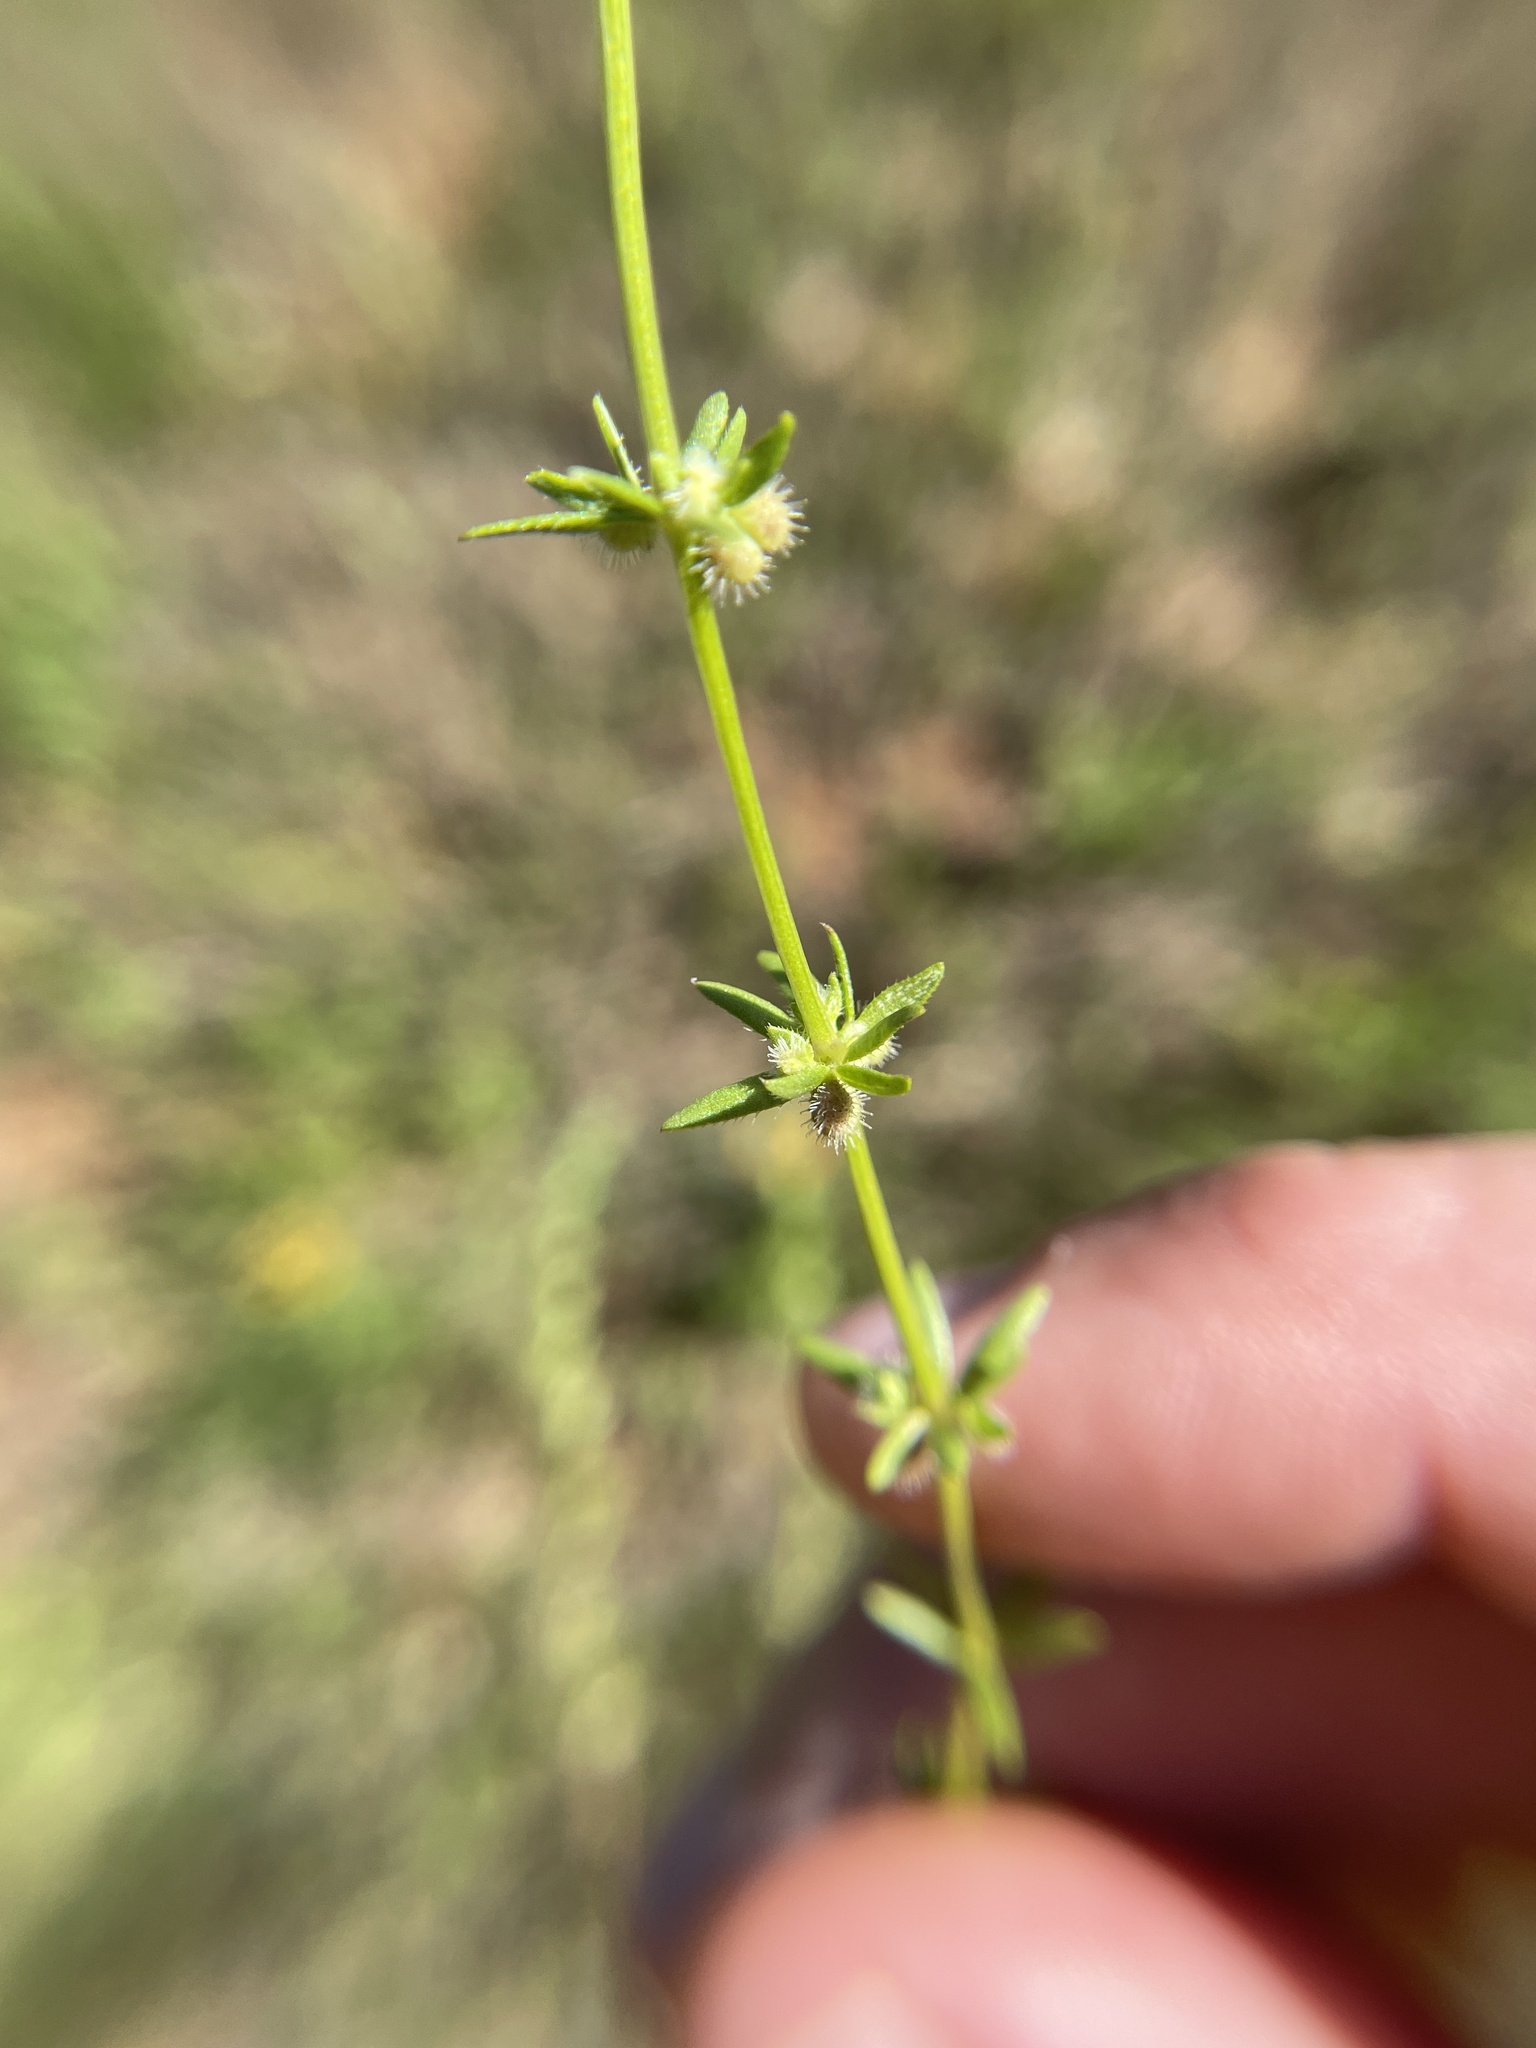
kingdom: Plantae
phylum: Tracheophyta
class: Magnoliopsida
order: Gentianales
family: Rubiaceae
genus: Galium
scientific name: Galium virgatum
